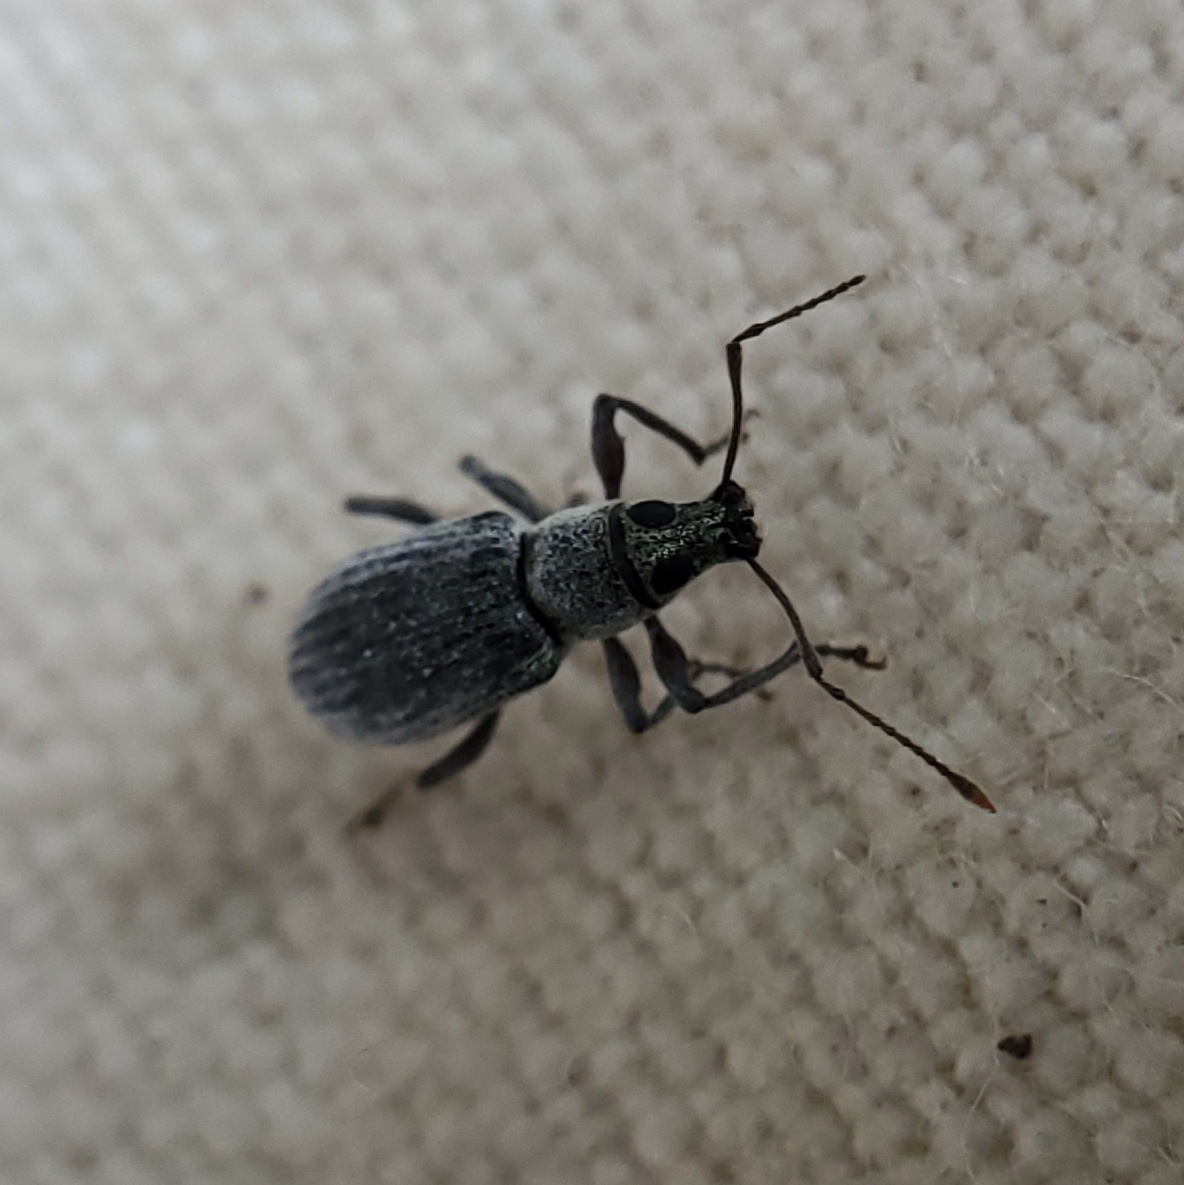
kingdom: Animalia
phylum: Arthropoda
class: Insecta
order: Coleoptera
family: Curculionidae
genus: Cyrtepistomus
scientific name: Cyrtepistomus castaneus
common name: Weevil
